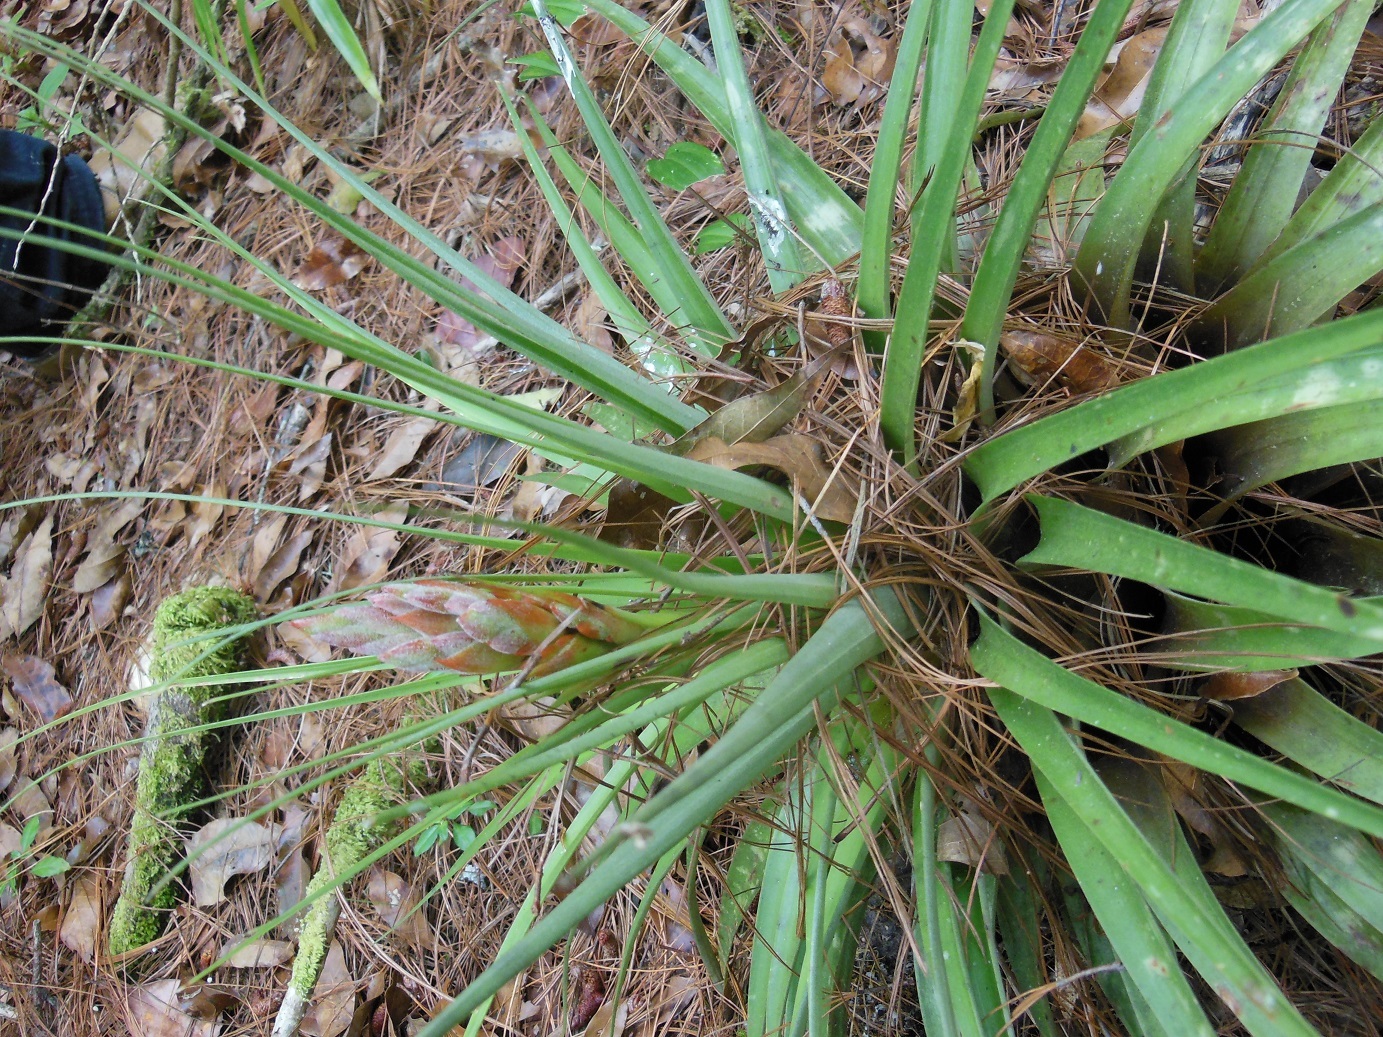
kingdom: Plantae
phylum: Tracheophyta
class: Liliopsida
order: Poales
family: Bromeliaceae
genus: Tillandsia
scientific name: Tillandsia rotundata
